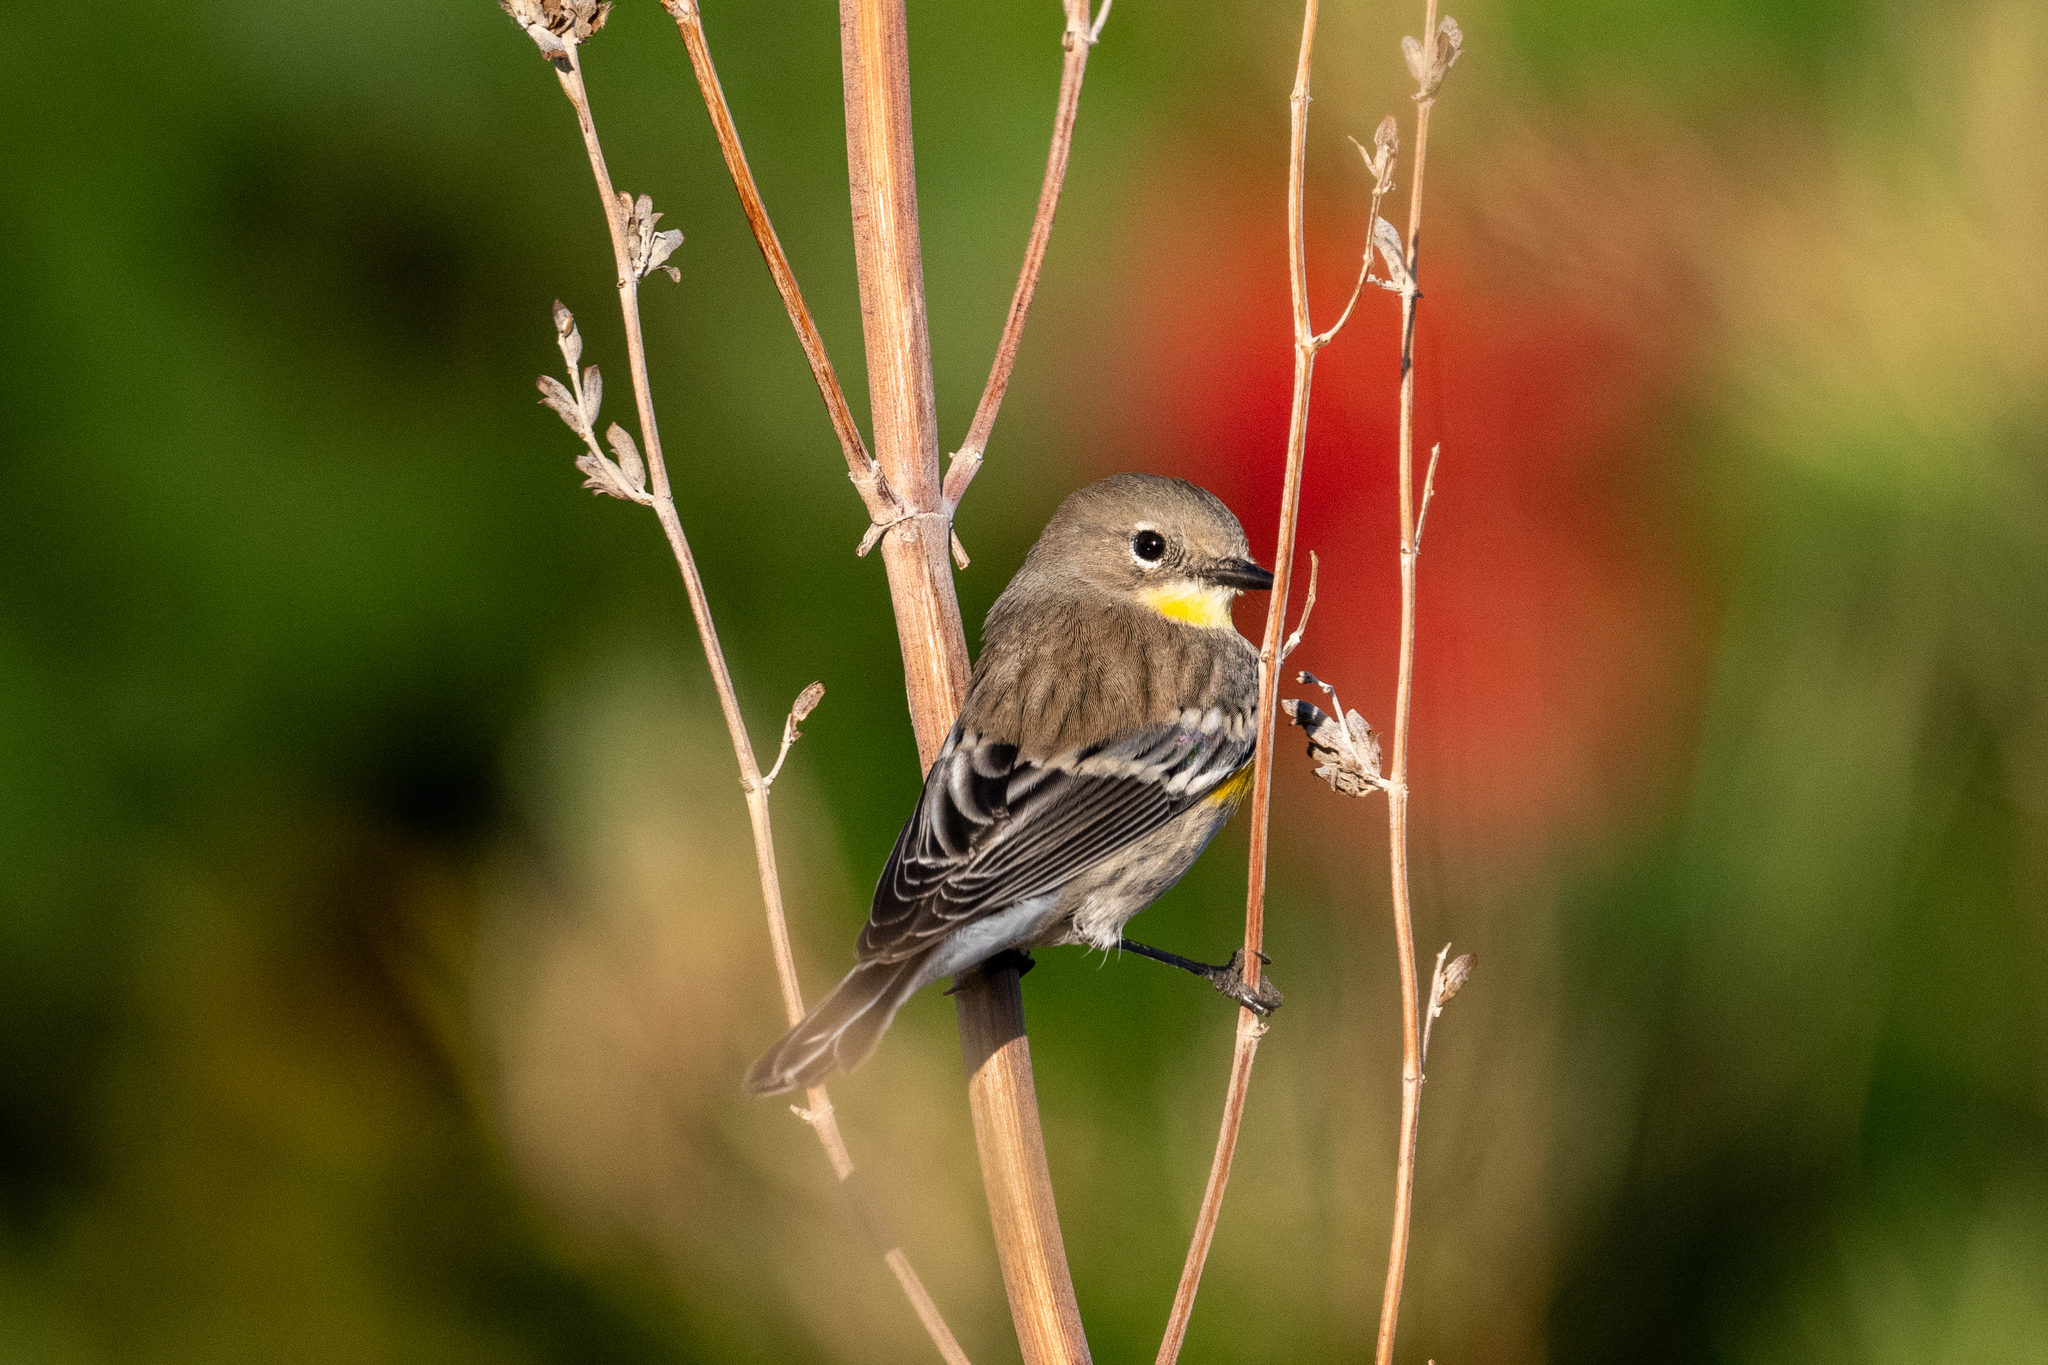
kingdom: Animalia
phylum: Chordata
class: Aves
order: Passeriformes
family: Parulidae
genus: Setophaga
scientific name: Setophaga coronata
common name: Myrtle warbler
